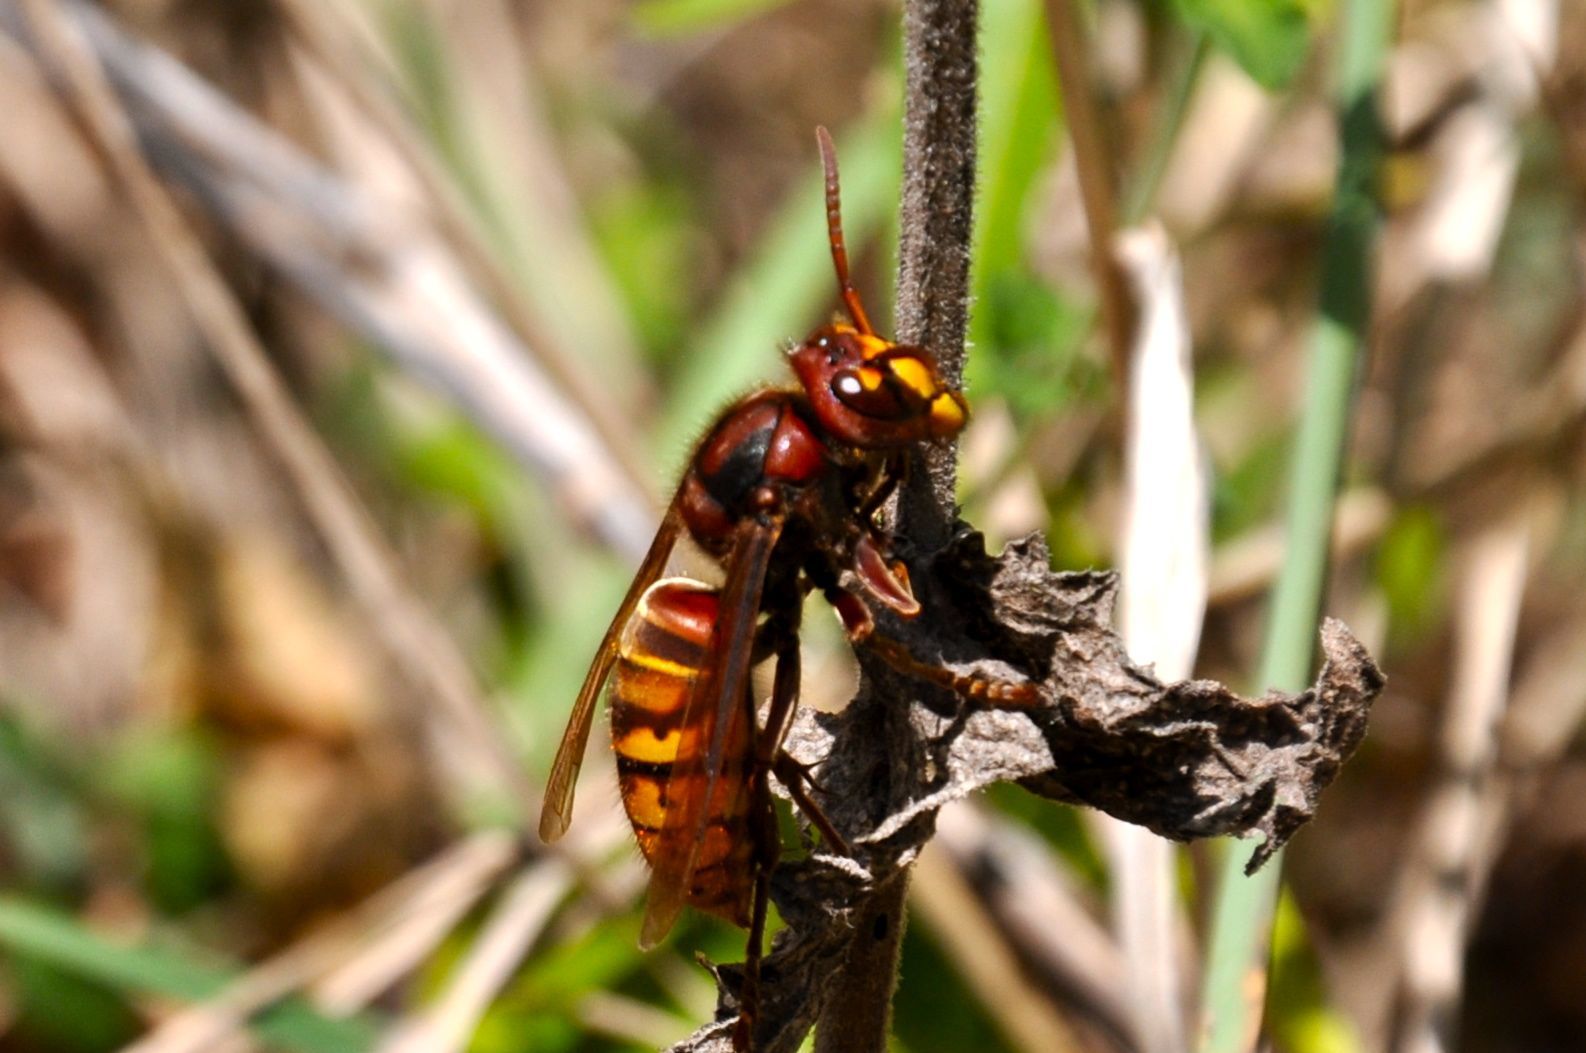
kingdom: Animalia
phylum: Arthropoda
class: Insecta
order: Hymenoptera
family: Vespidae
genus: Vespa
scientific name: Vespa crabro
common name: Hornet
